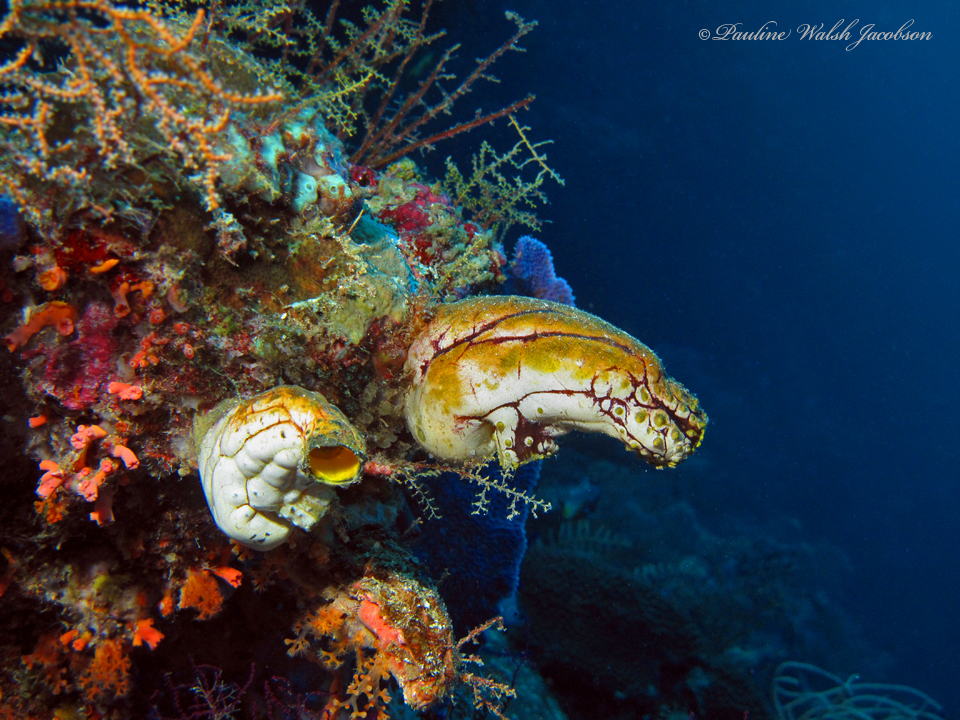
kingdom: Animalia
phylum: Chordata
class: Ascidiacea
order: Stolidobranchia
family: Styelidae
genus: Polycarpa
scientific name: Polycarpa aurata
